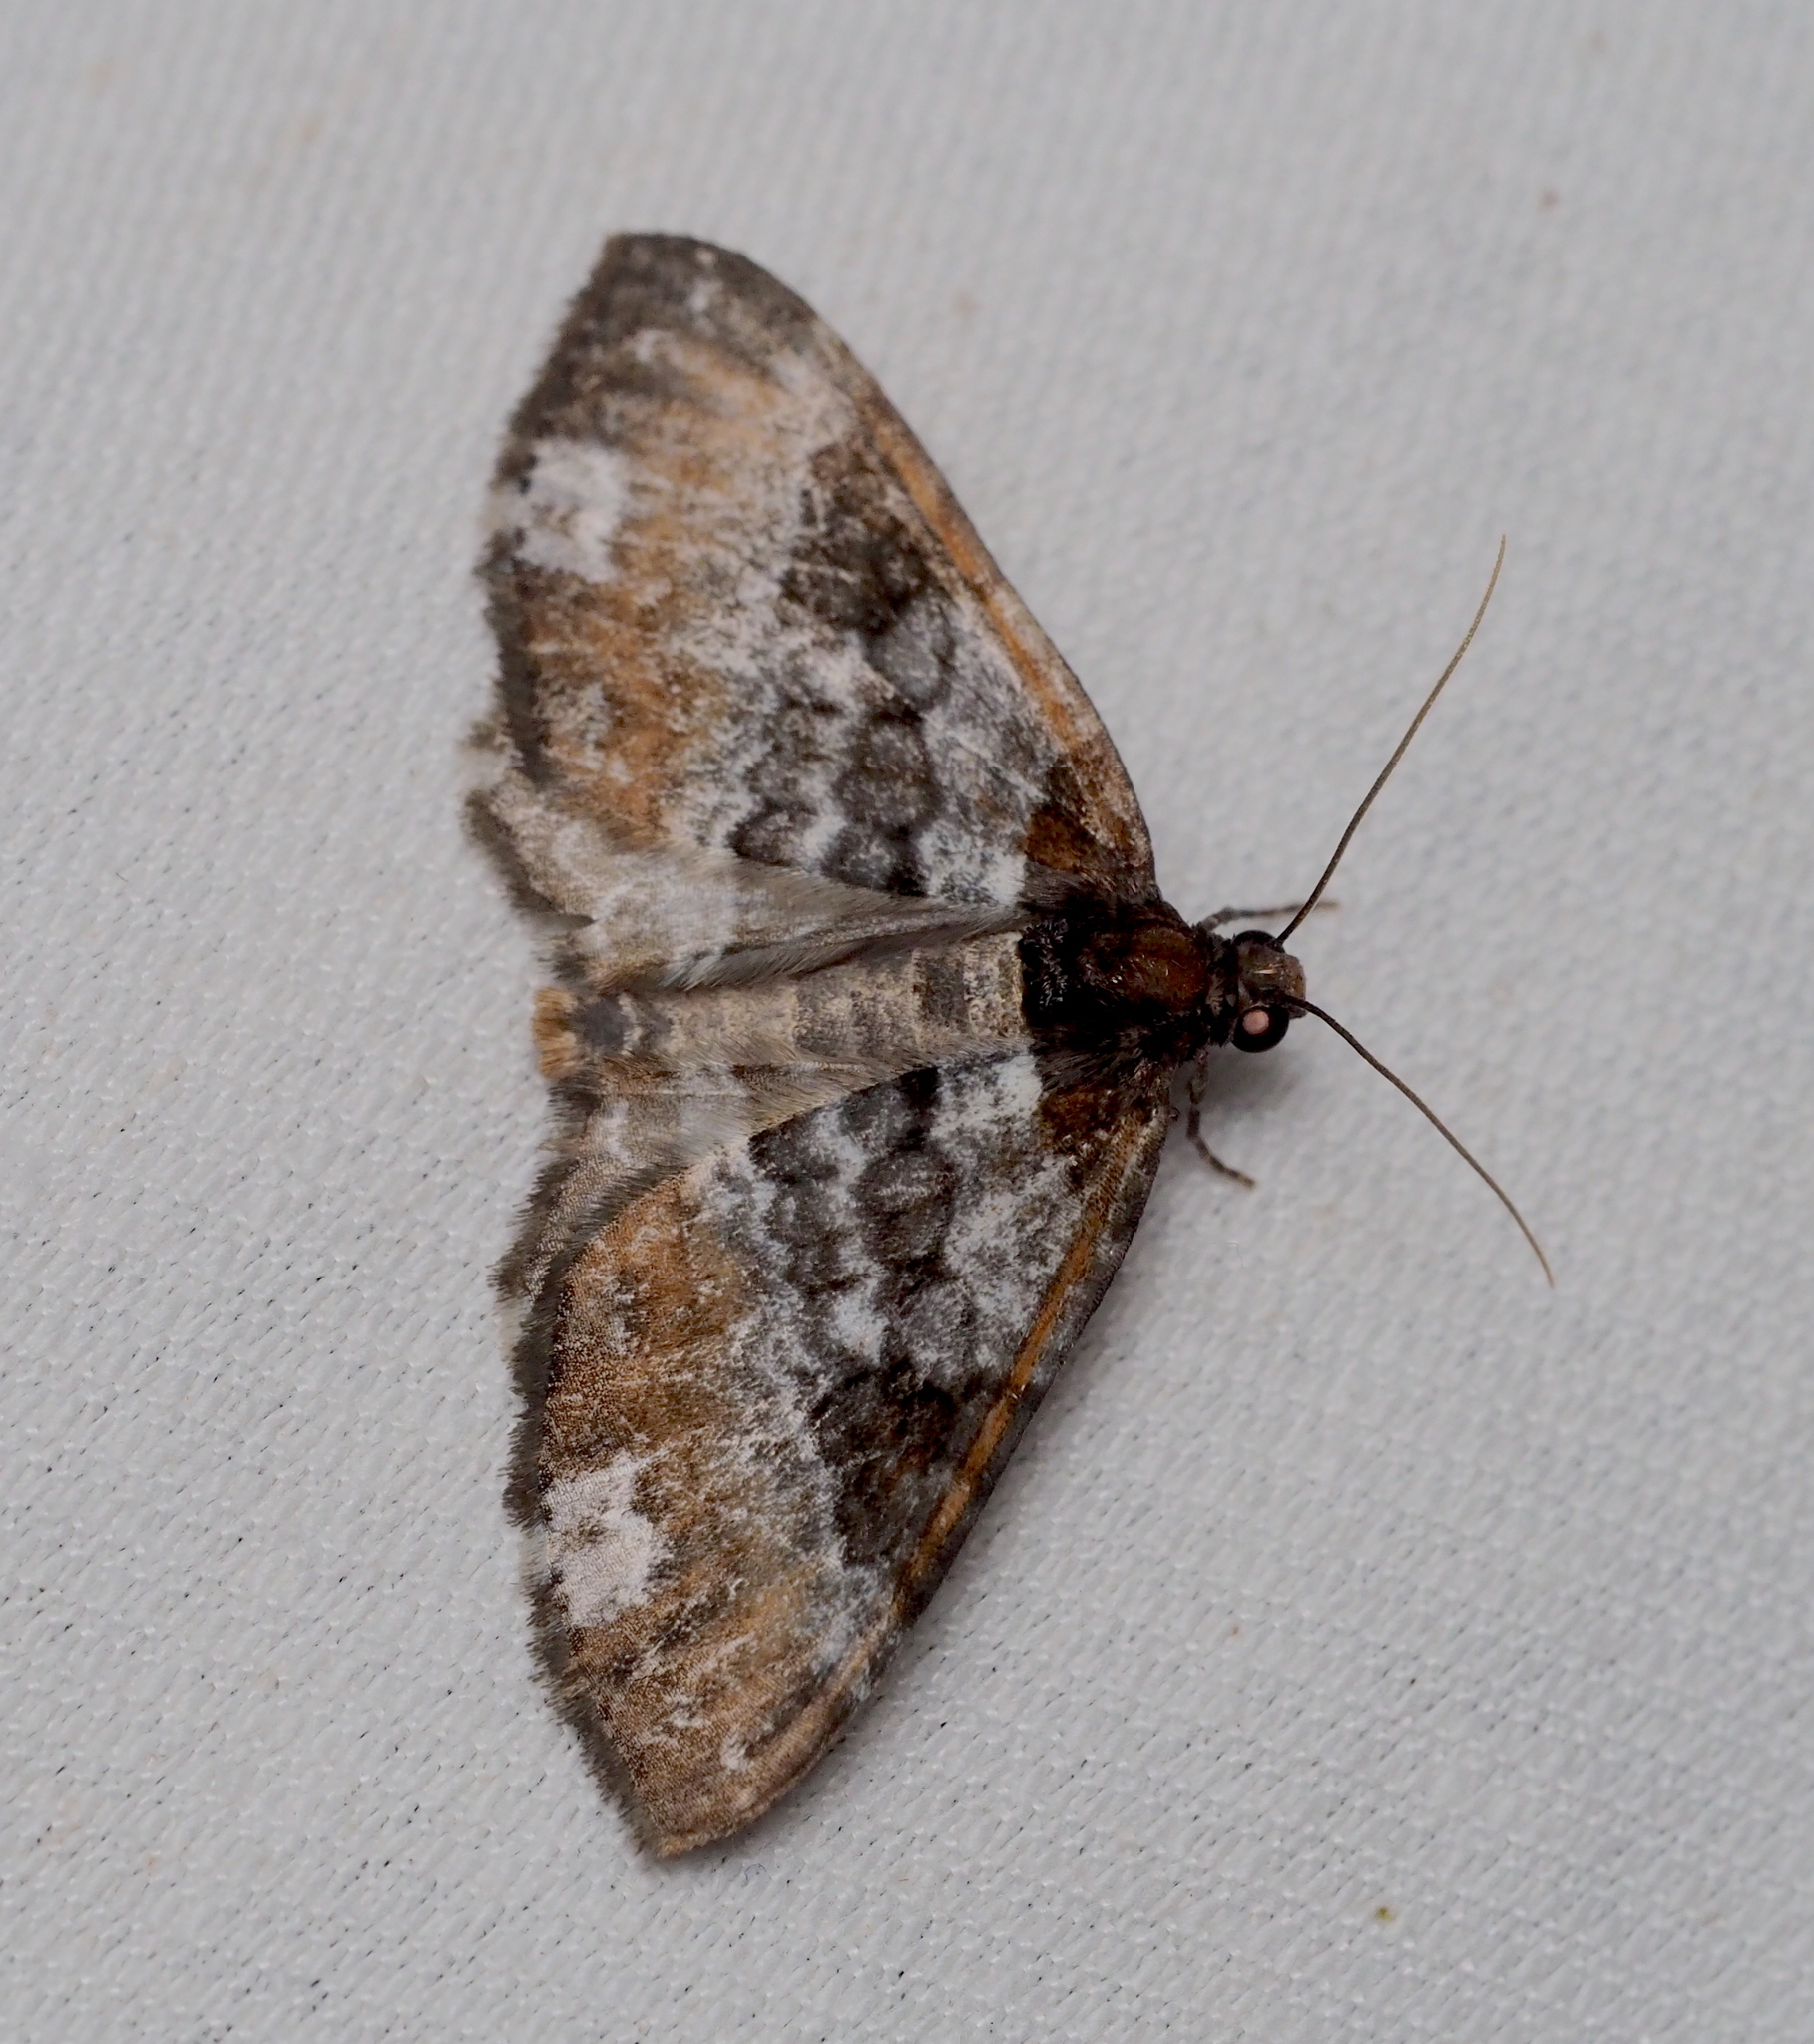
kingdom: Animalia
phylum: Arthropoda
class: Insecta
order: Lepidoptera
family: Geometridae
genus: Melanthia
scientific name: Melanthia procellata
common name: Pretty chalk carpet
